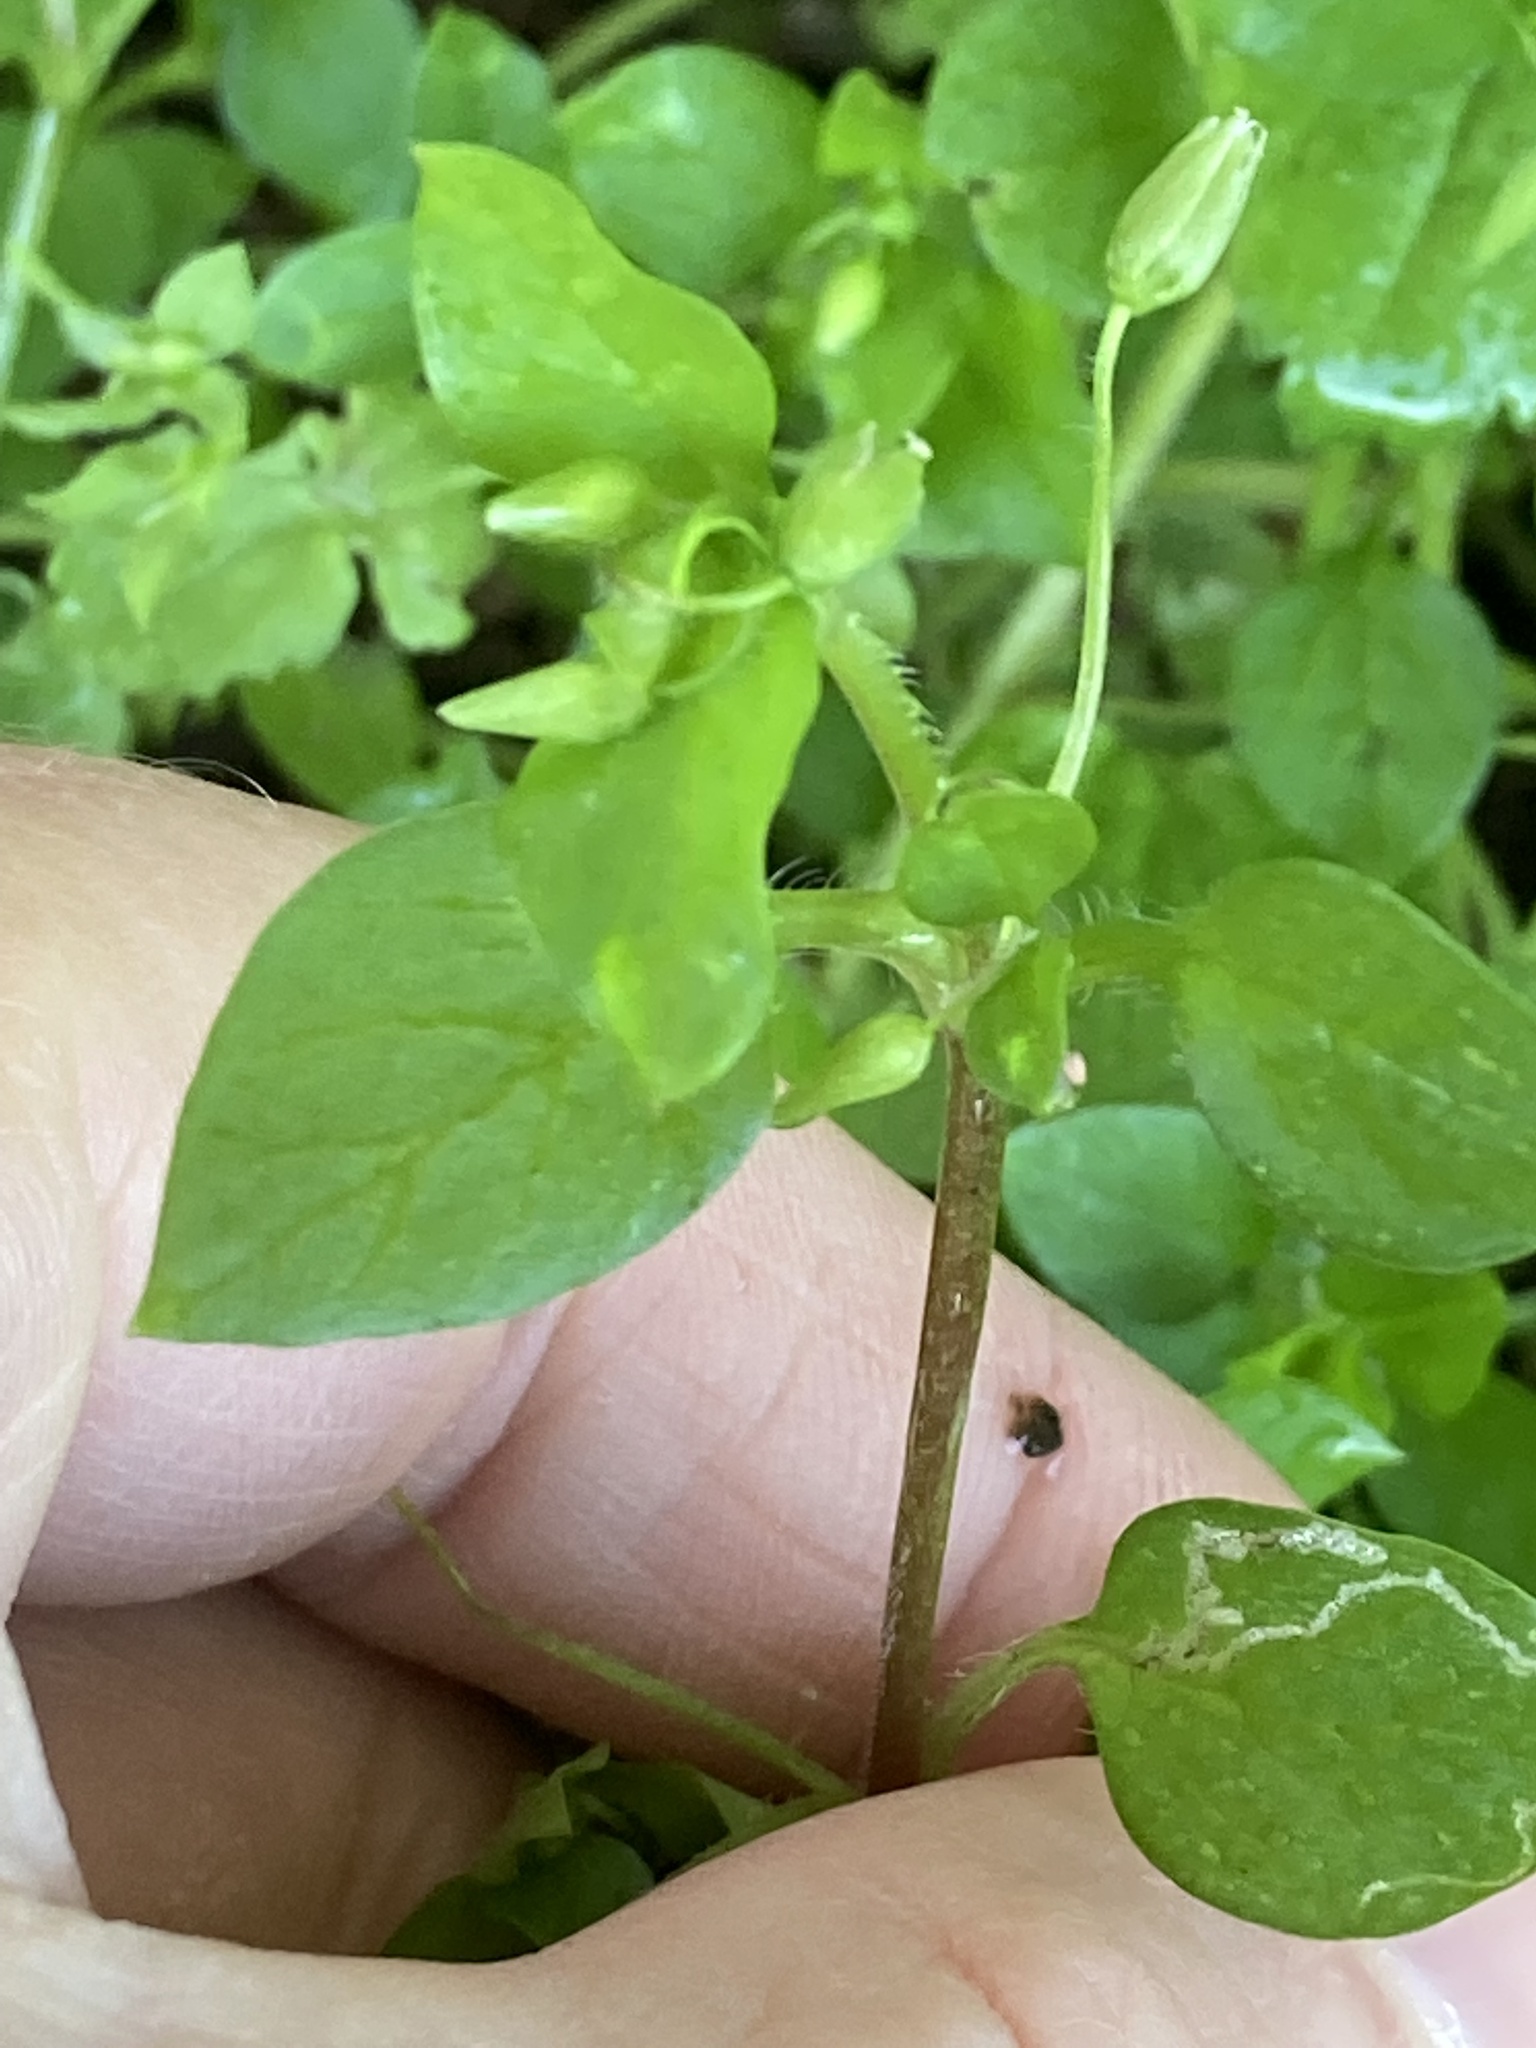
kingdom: Plantae
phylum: Tracheophyta
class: Magnoliopsida
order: Caryophyllales
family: Caryophyllaceae
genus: Stellaria
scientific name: Stellaria media
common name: Common chickweed
